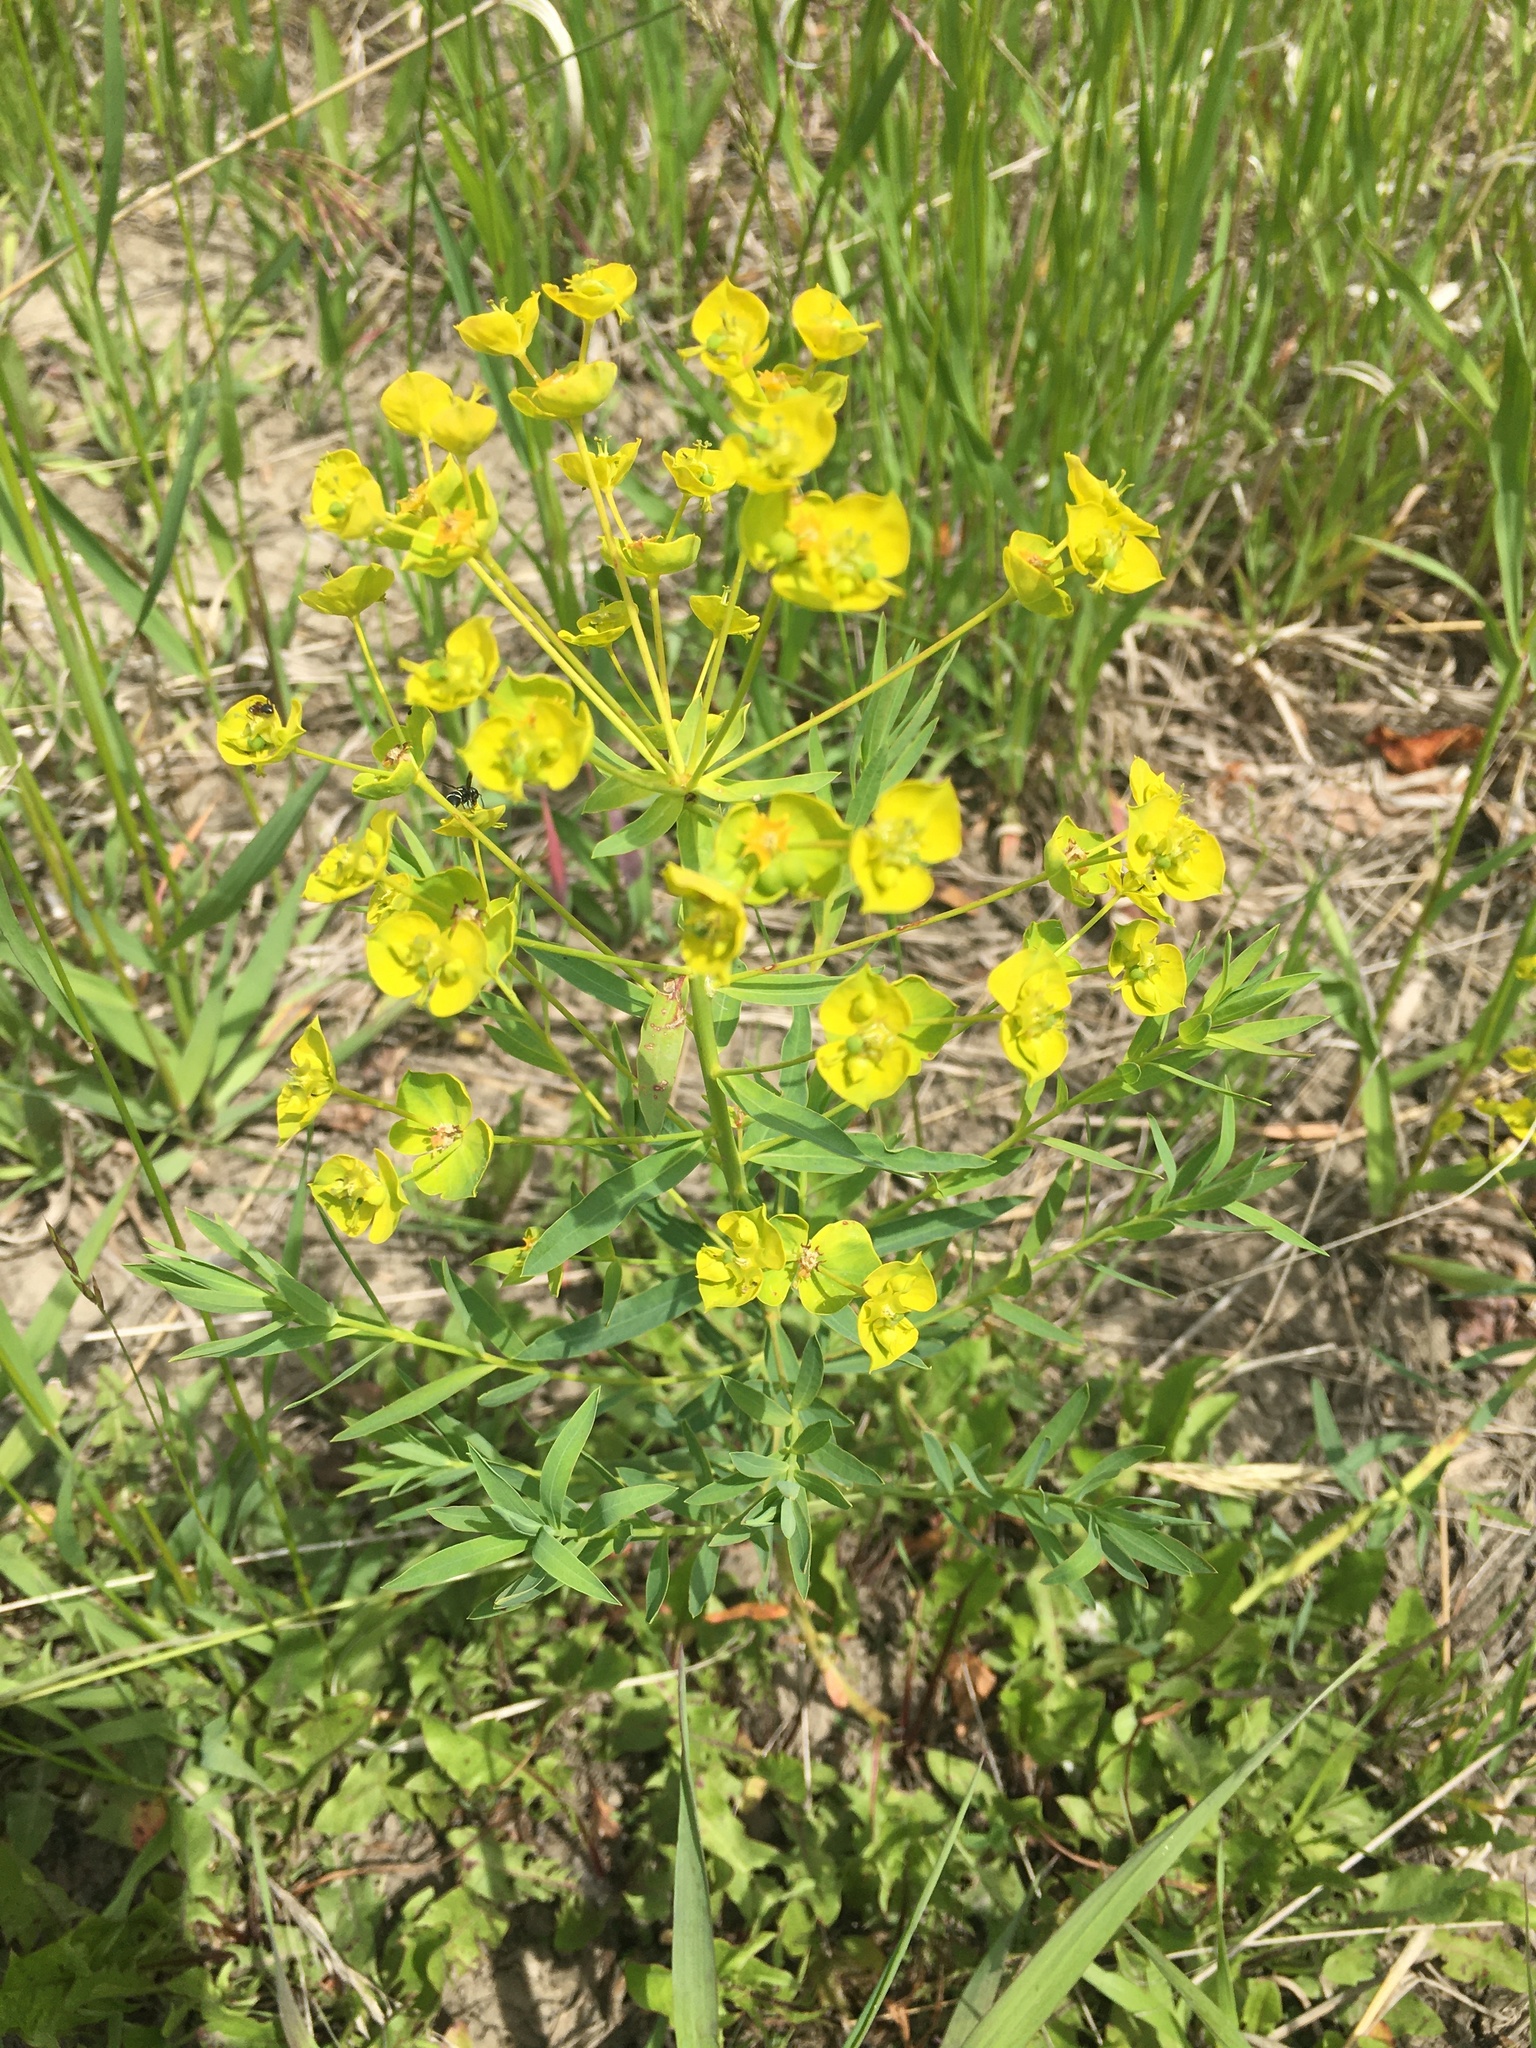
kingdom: Plantae
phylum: Tracheophyta
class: Magnoliopsida
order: Malpighiales
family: Euphorbiaceae
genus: Euphorbia
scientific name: Euphorbia virgata
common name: Leafy spurge
